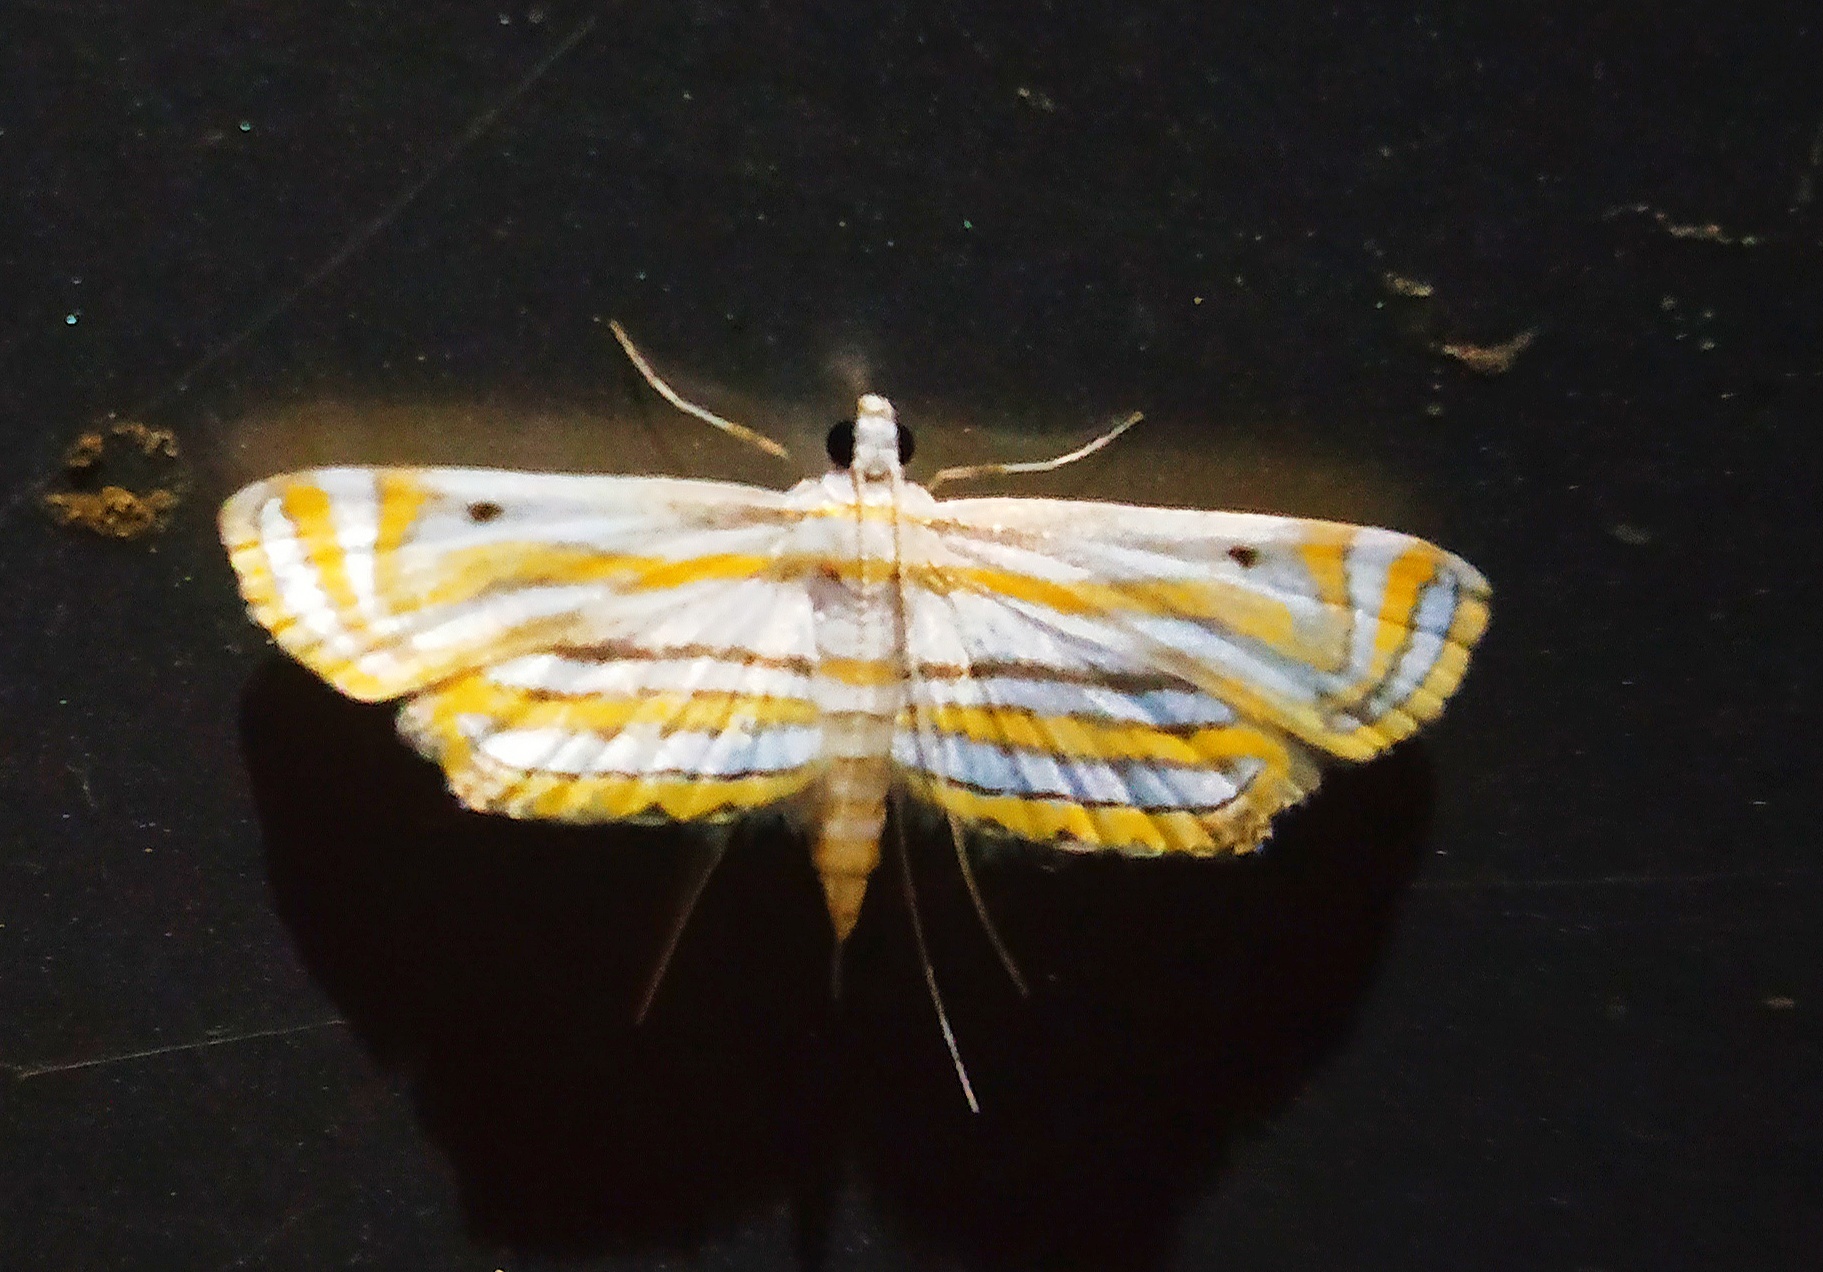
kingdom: Animalia
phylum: Arthropoda
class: Insecta
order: Lepidoptera
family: Crambidae
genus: Parapoynx
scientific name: Parapoynx villidalis
